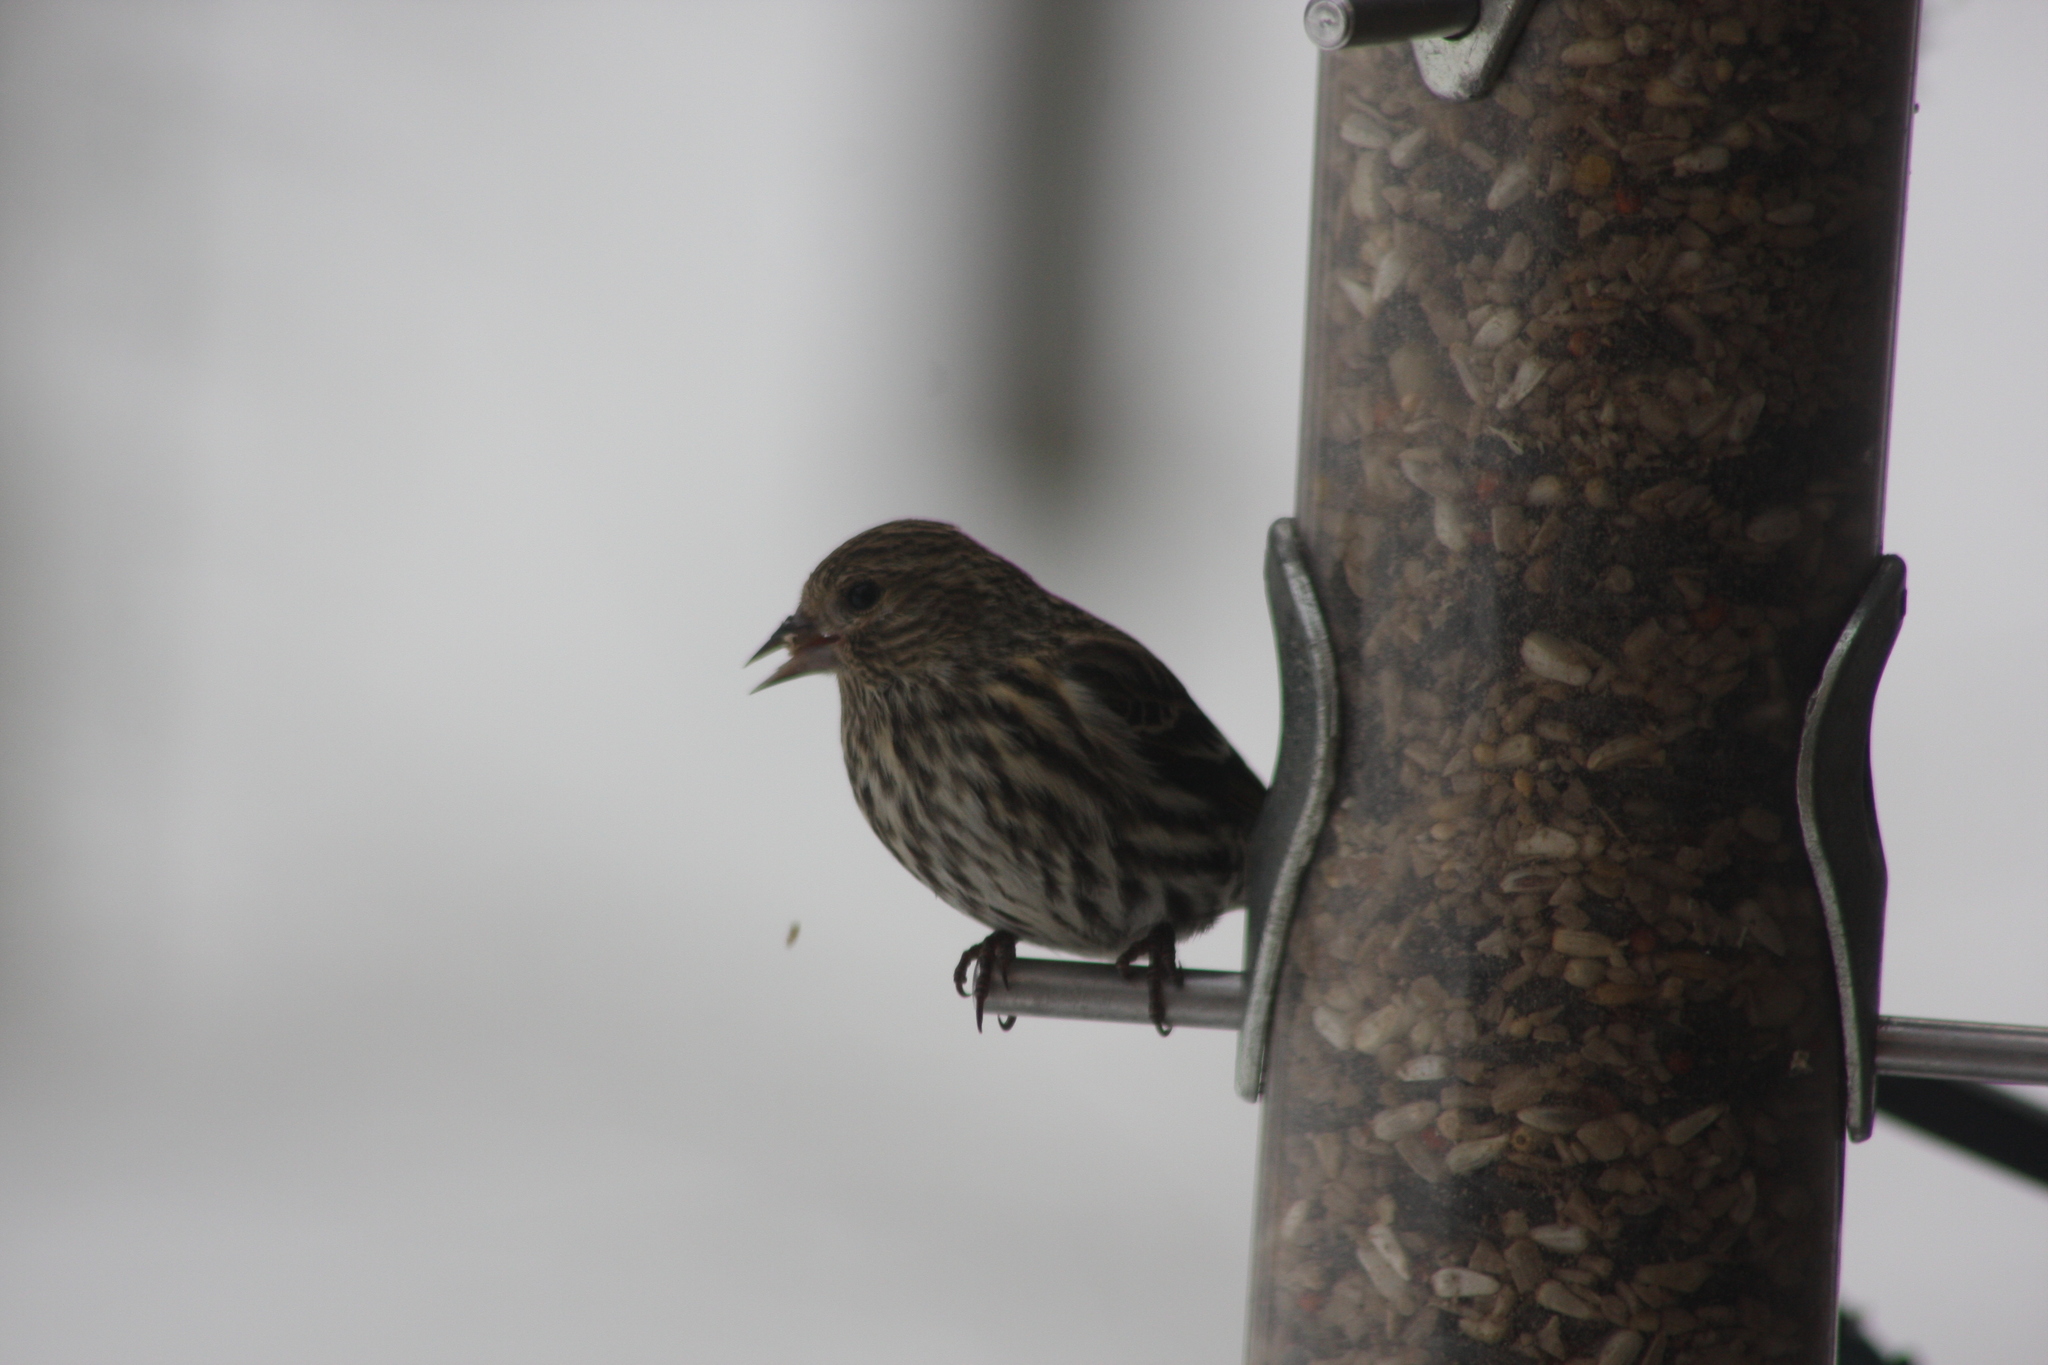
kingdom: Animalia
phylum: Chordata
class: Aves
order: Passeriformes
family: Fringillidae
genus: Spinus
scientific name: Spinus pinus
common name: Pine siskin
